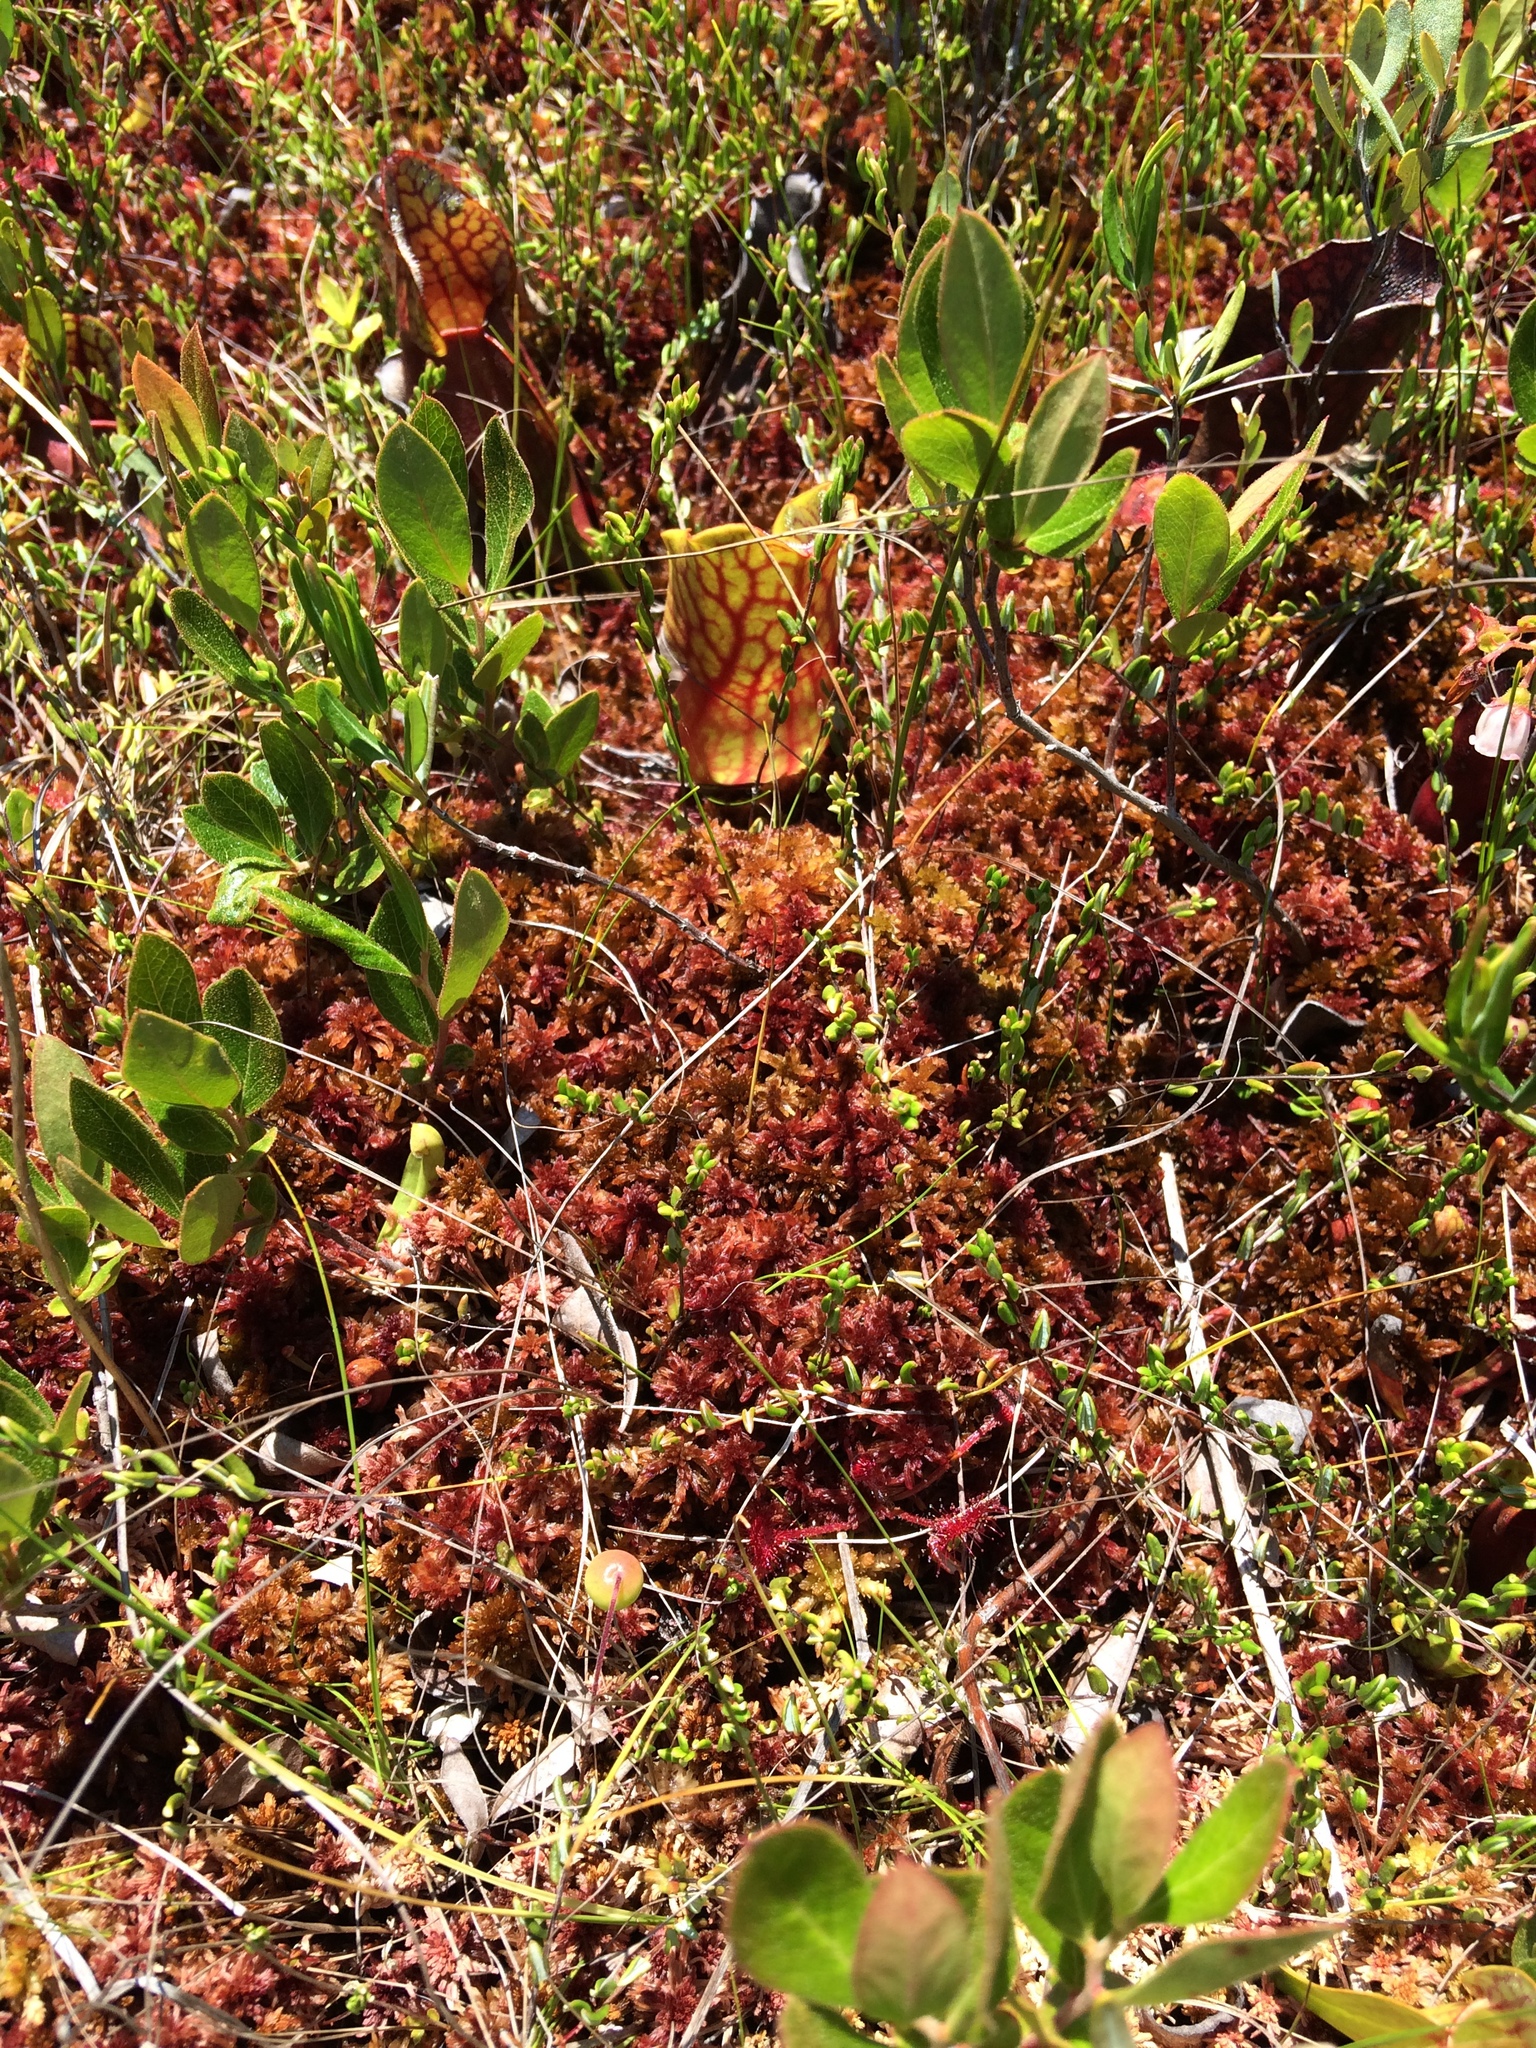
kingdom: Plantae
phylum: Tracheophyta
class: Magnoliopsida
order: Ericales
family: Ericaceae
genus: Vaccinium
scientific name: Vaccinium oxycoccos
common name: Cranberry
